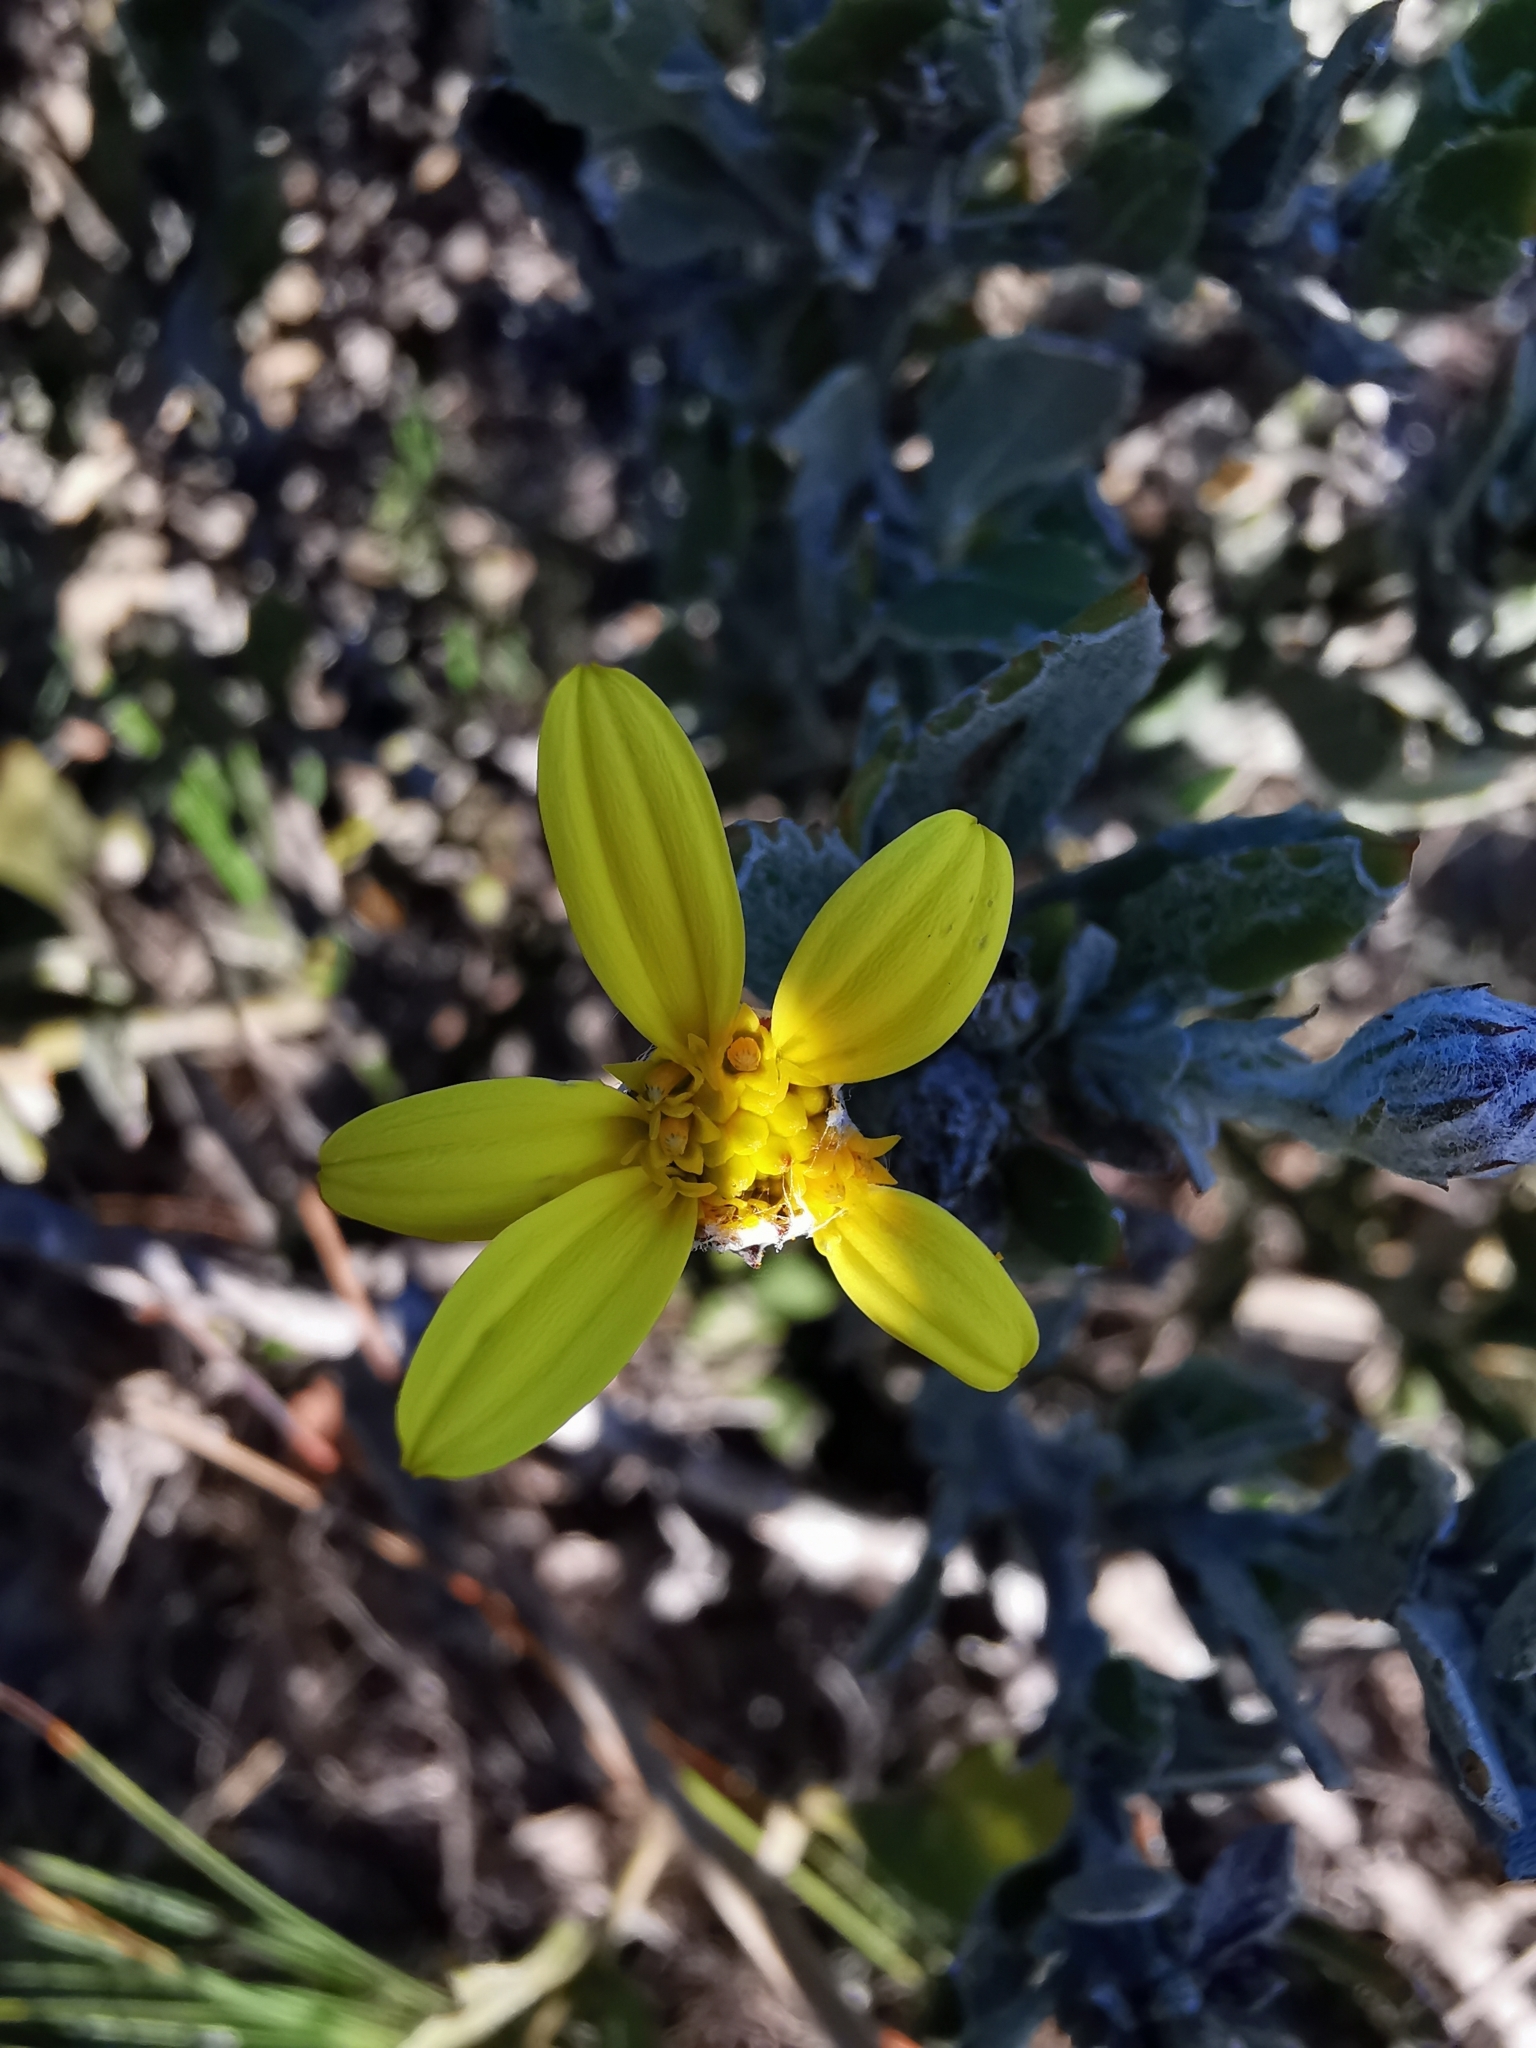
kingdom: Plantae
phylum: Tracheophyta
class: Magnoliopsida
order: Asterales
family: Asteraceae
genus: Osteospermum
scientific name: Osteospermum incanum
